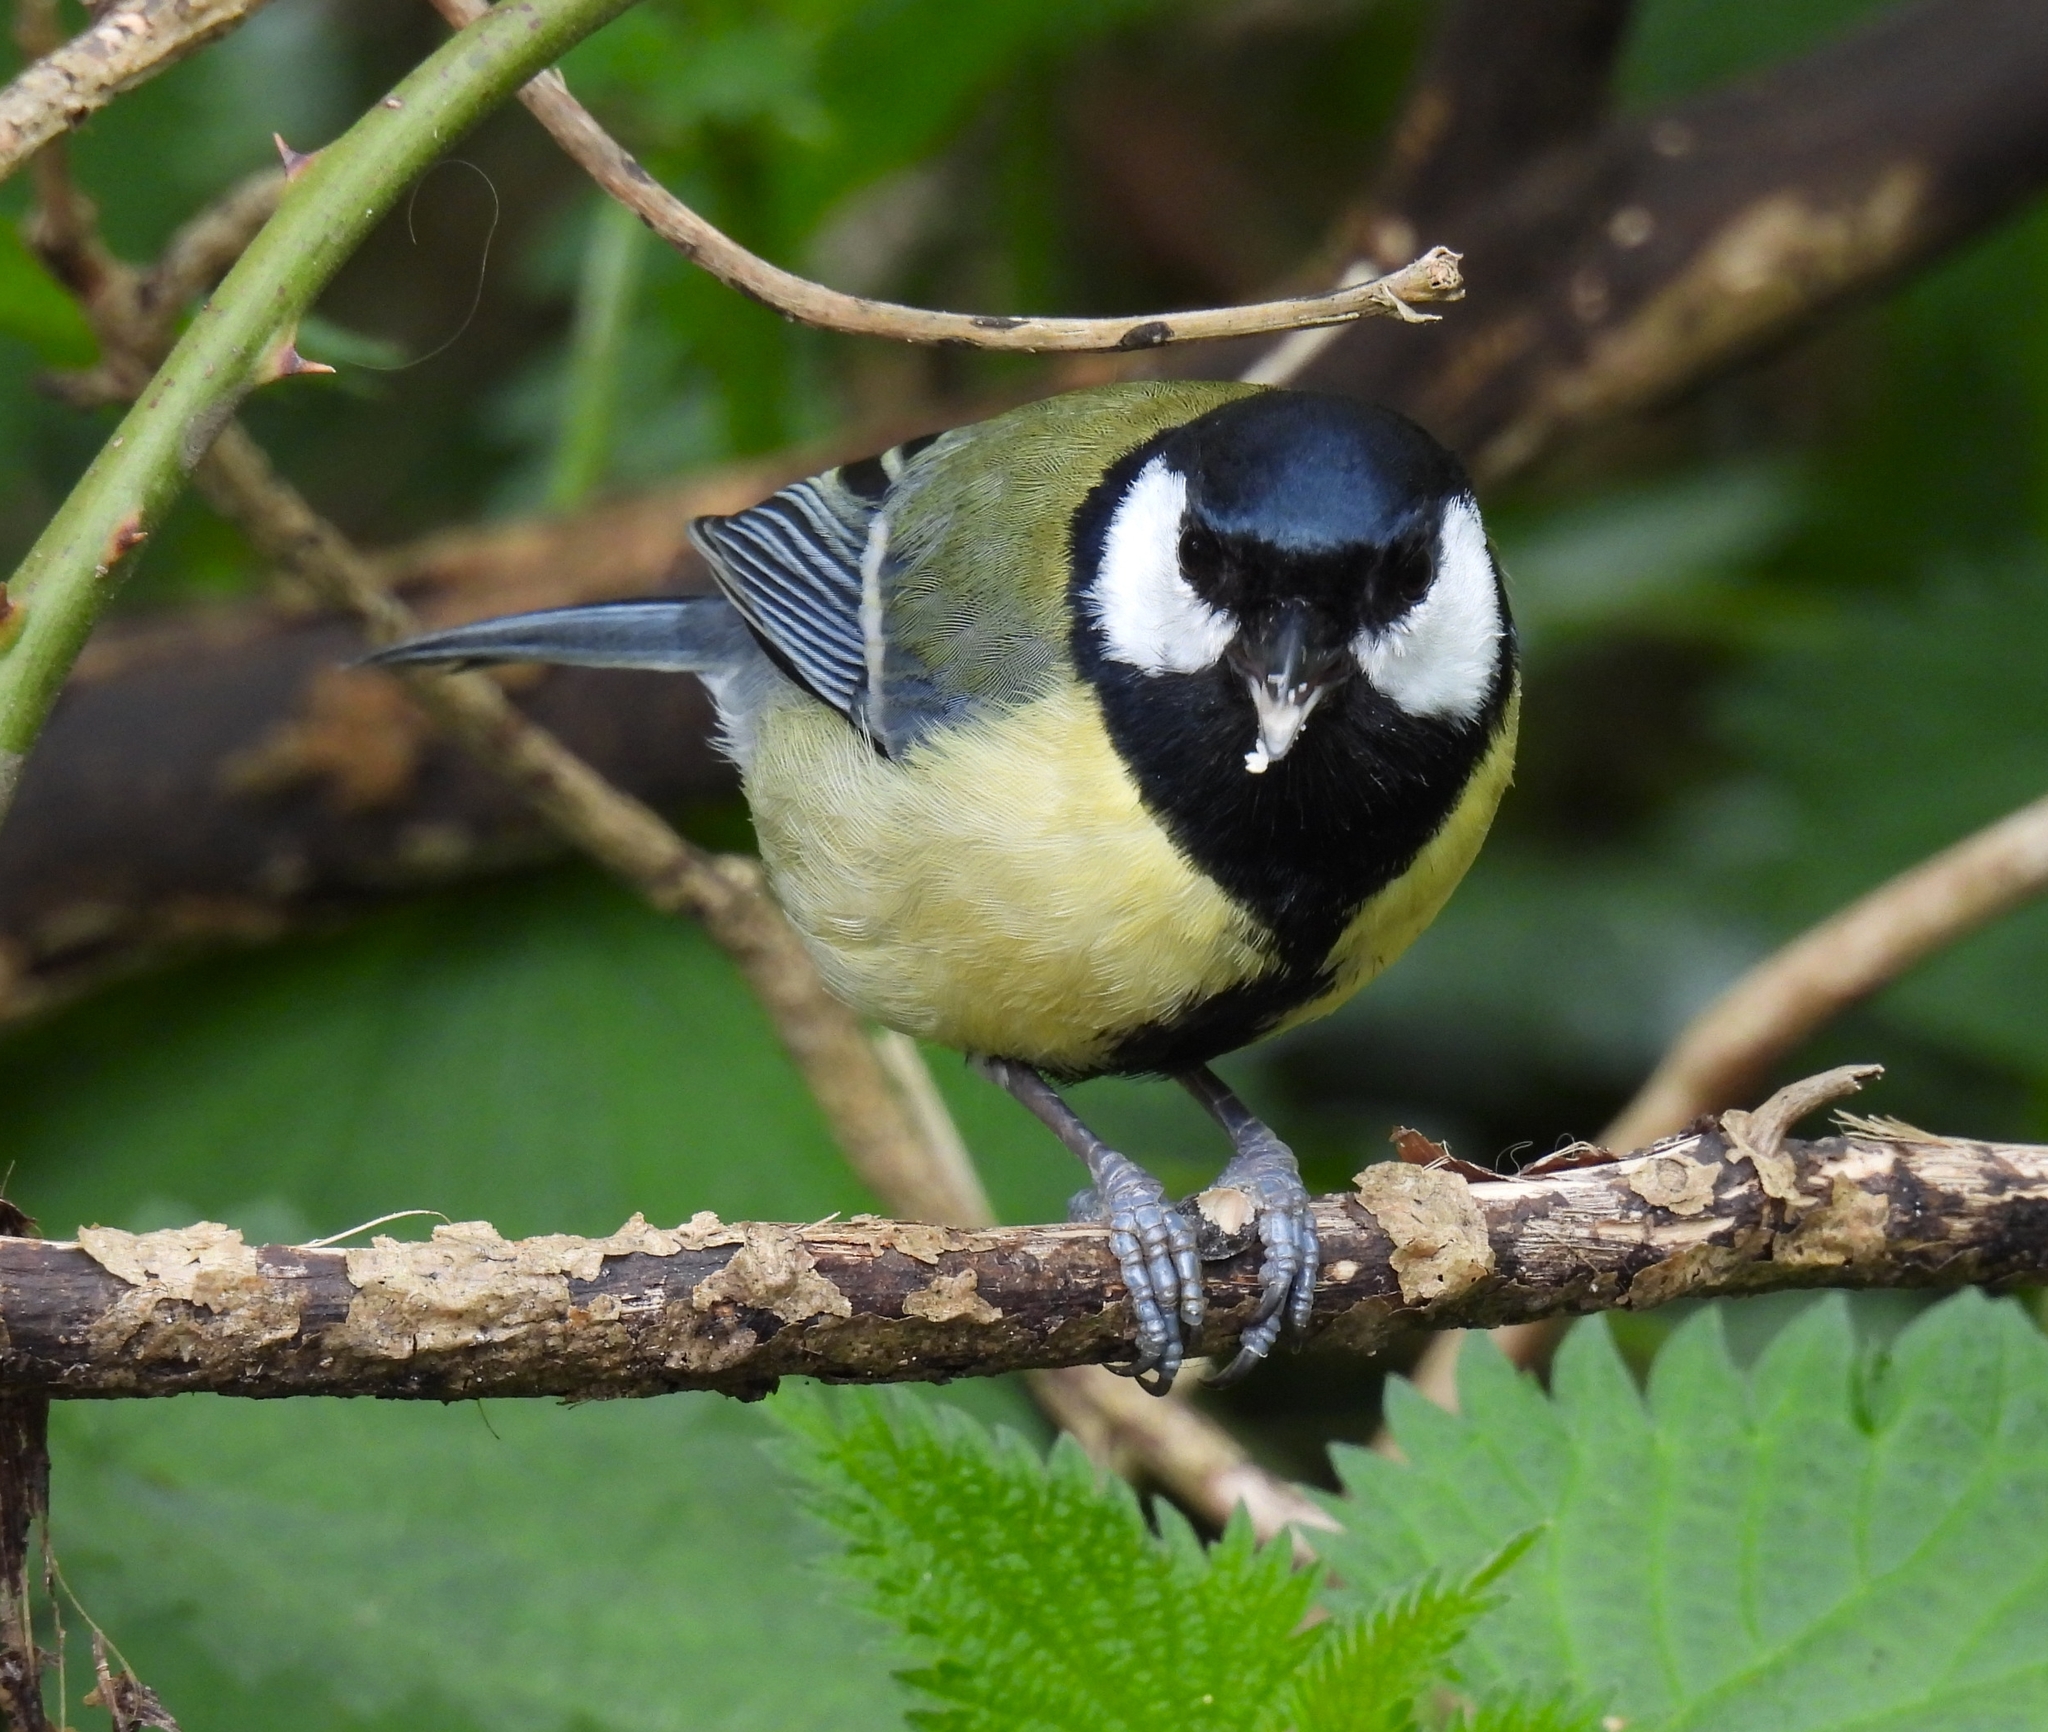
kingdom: Animalia
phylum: Chordata
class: Aves
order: Passeriformes
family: Paridae
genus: Parus
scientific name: Parus major
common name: Great tit
